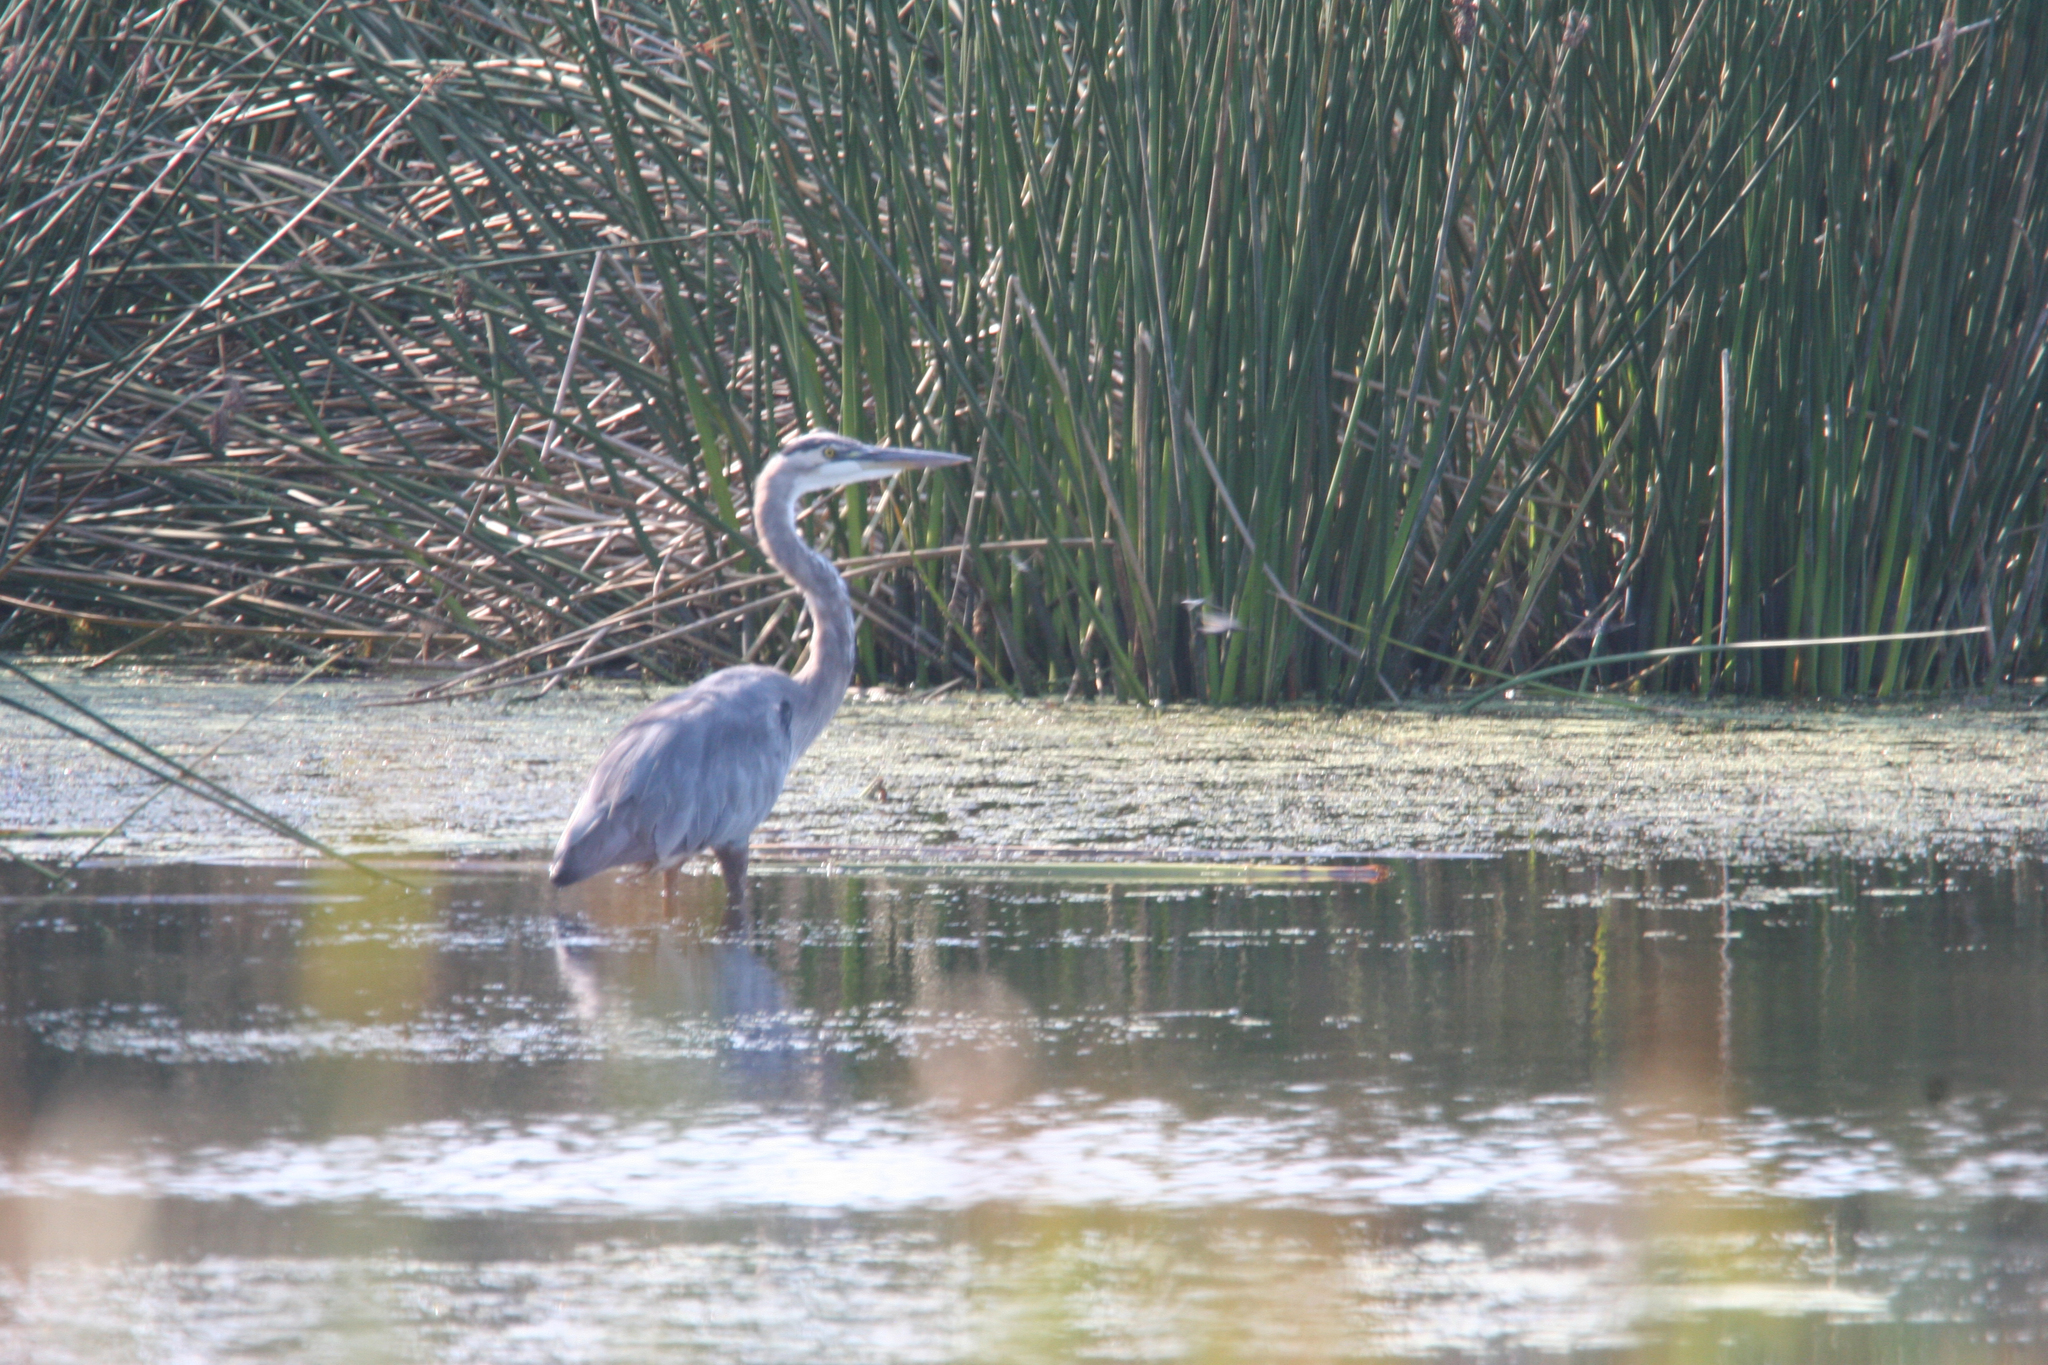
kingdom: Animalia
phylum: Chordata
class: Aves
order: Pelecaniformes
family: Ardeidae
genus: Ardea
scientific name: Ardea herodias
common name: Great blue heron
